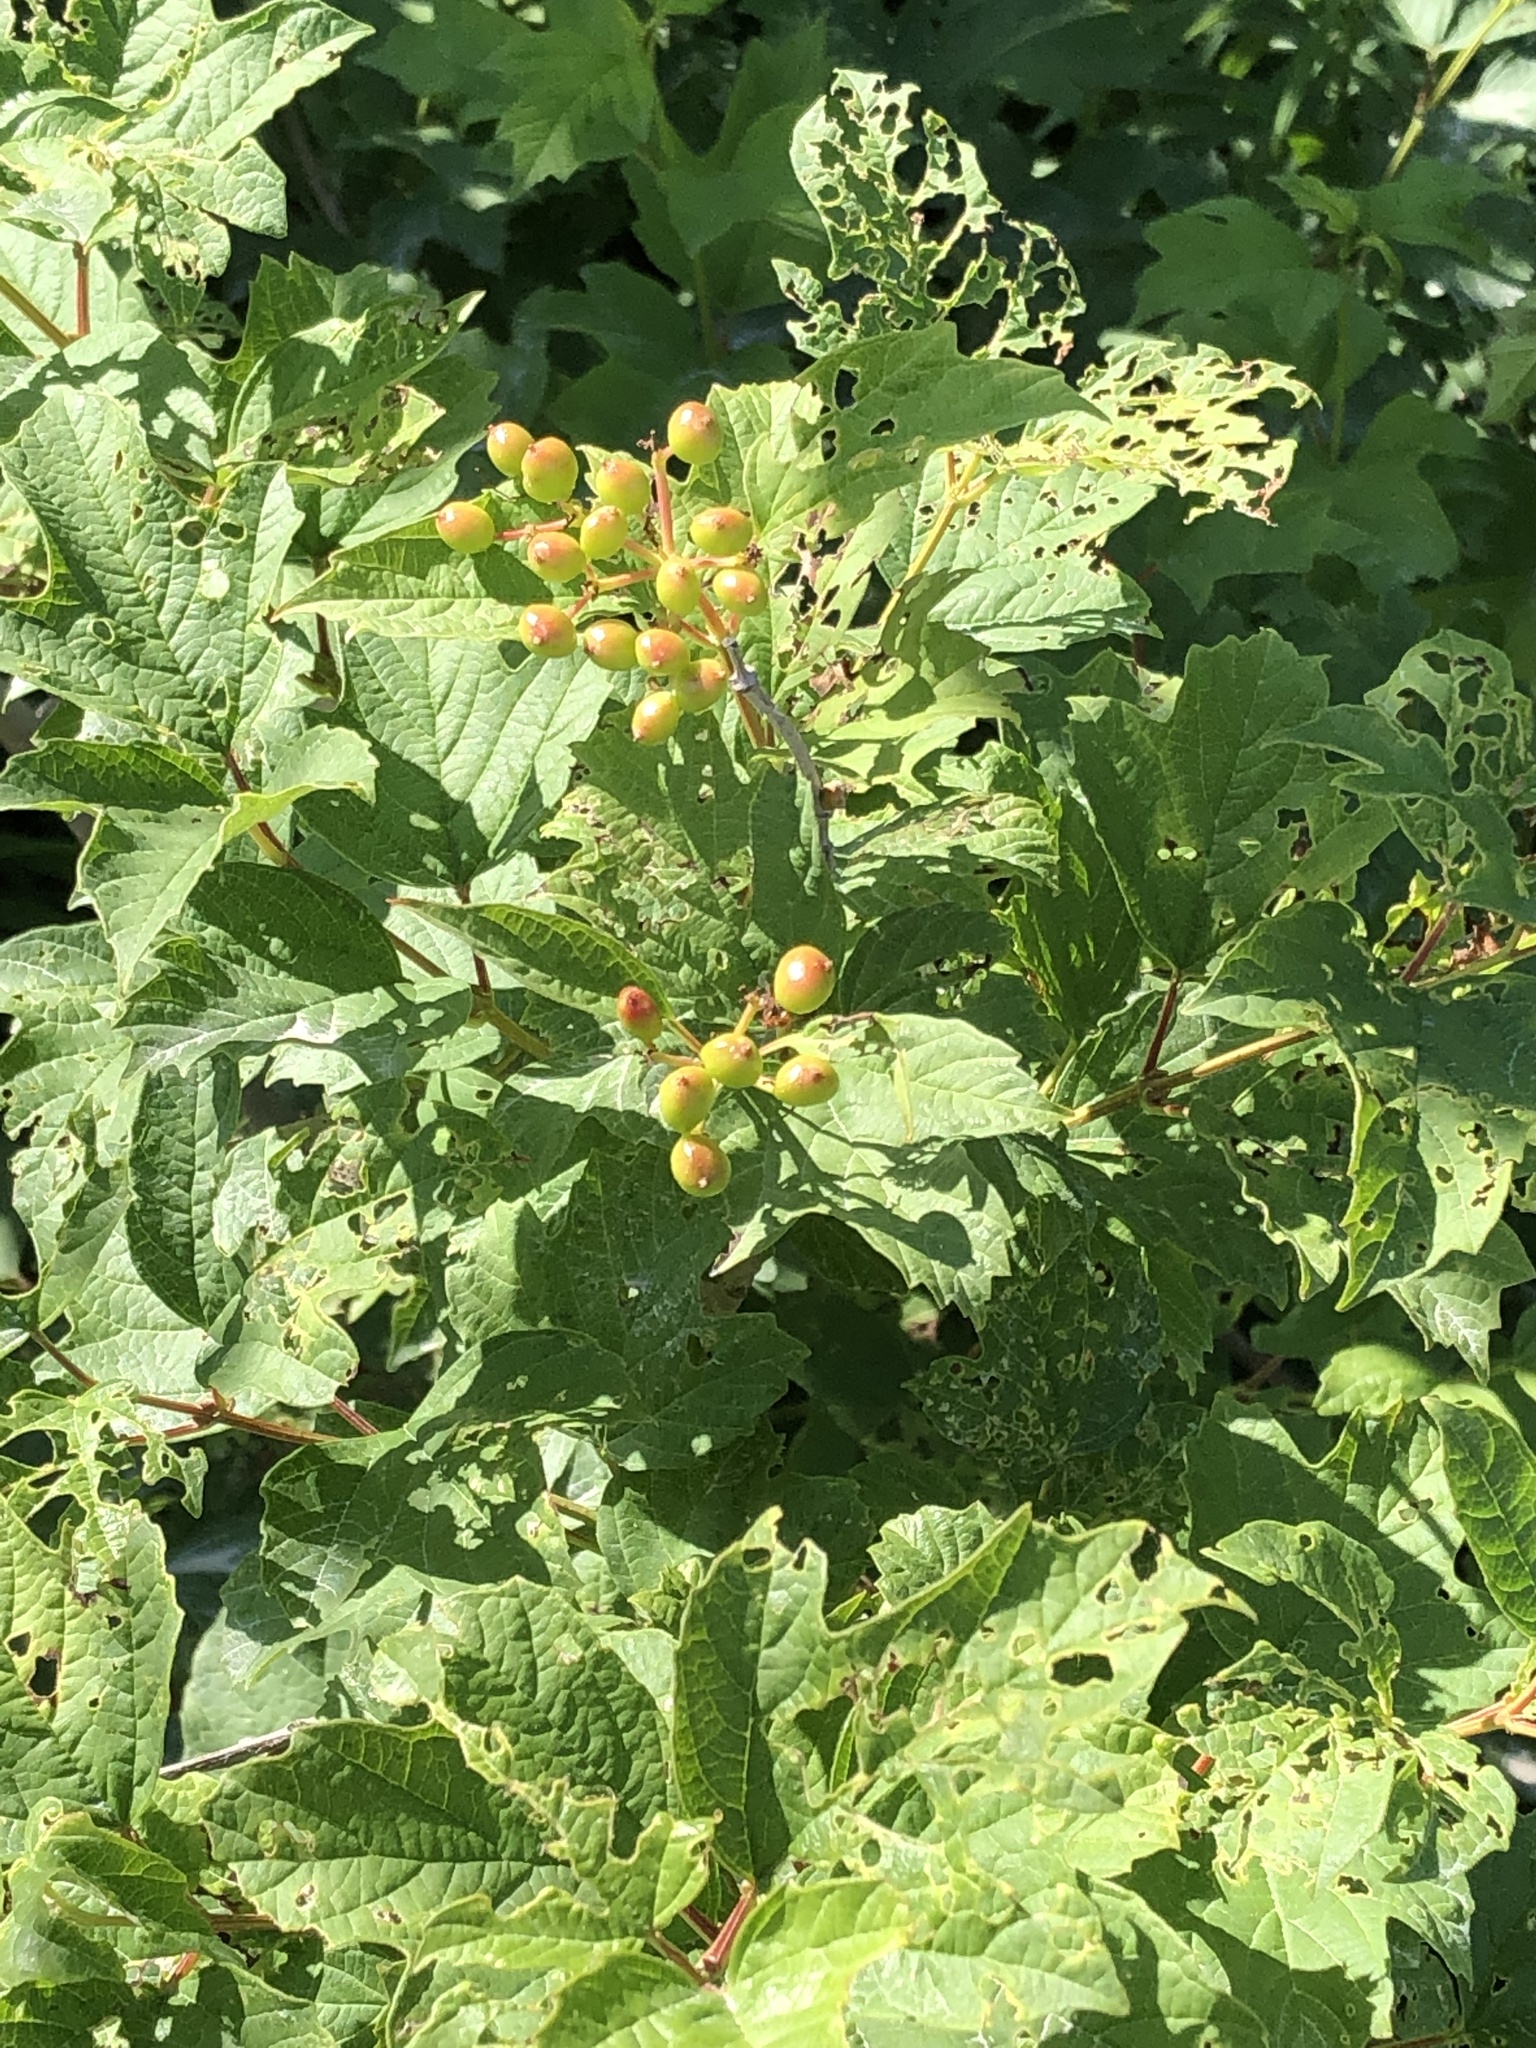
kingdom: Plantae
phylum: Tracheophyta
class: Magnoliopsida
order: Dipsacales
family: Viburnaceae
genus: Viburnum
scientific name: Viburnum opulus
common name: Guelder-rose
